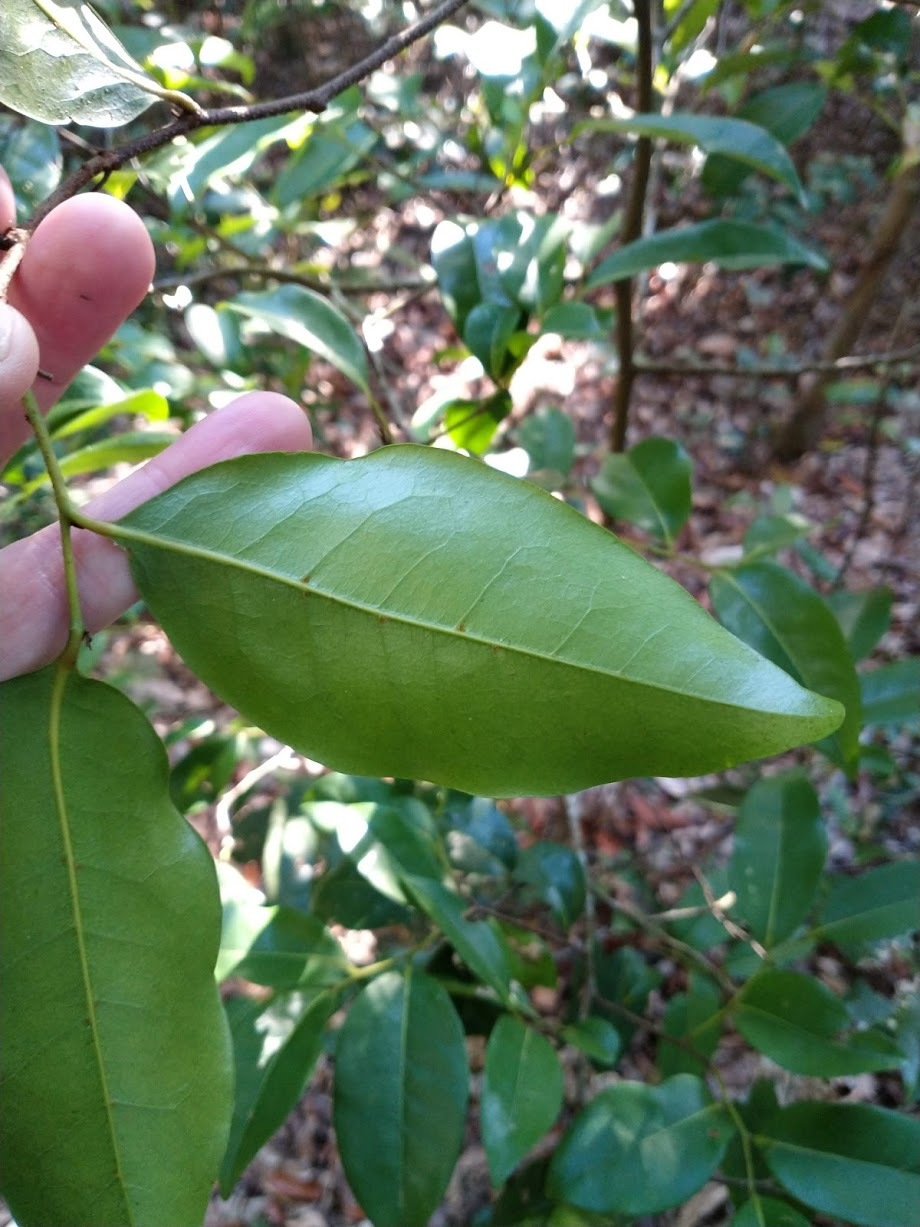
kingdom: Plantae
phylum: Tracheophyta
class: Magnoliopsida
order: Magnoliales
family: Annonaceae
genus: Hubera
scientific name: Hubera nitidissima
